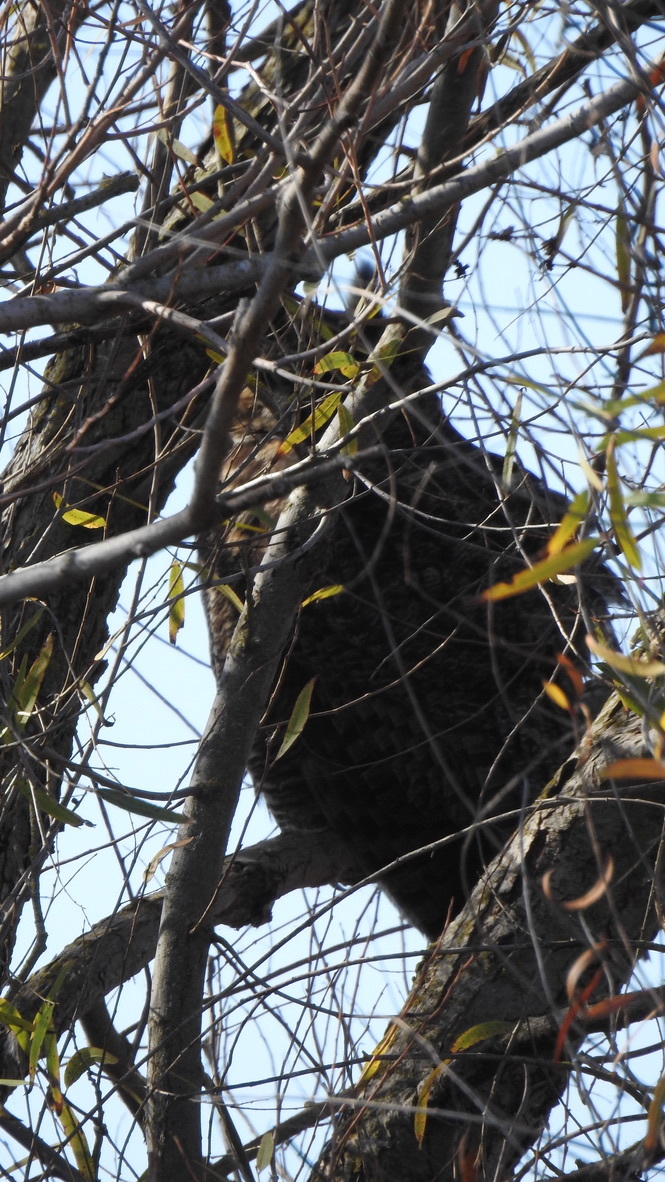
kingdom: Animalia
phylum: Chordata
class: Aves
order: Strigiformes
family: Strigidae
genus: Bubo
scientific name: Bubo virginianus
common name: Great horned owl
